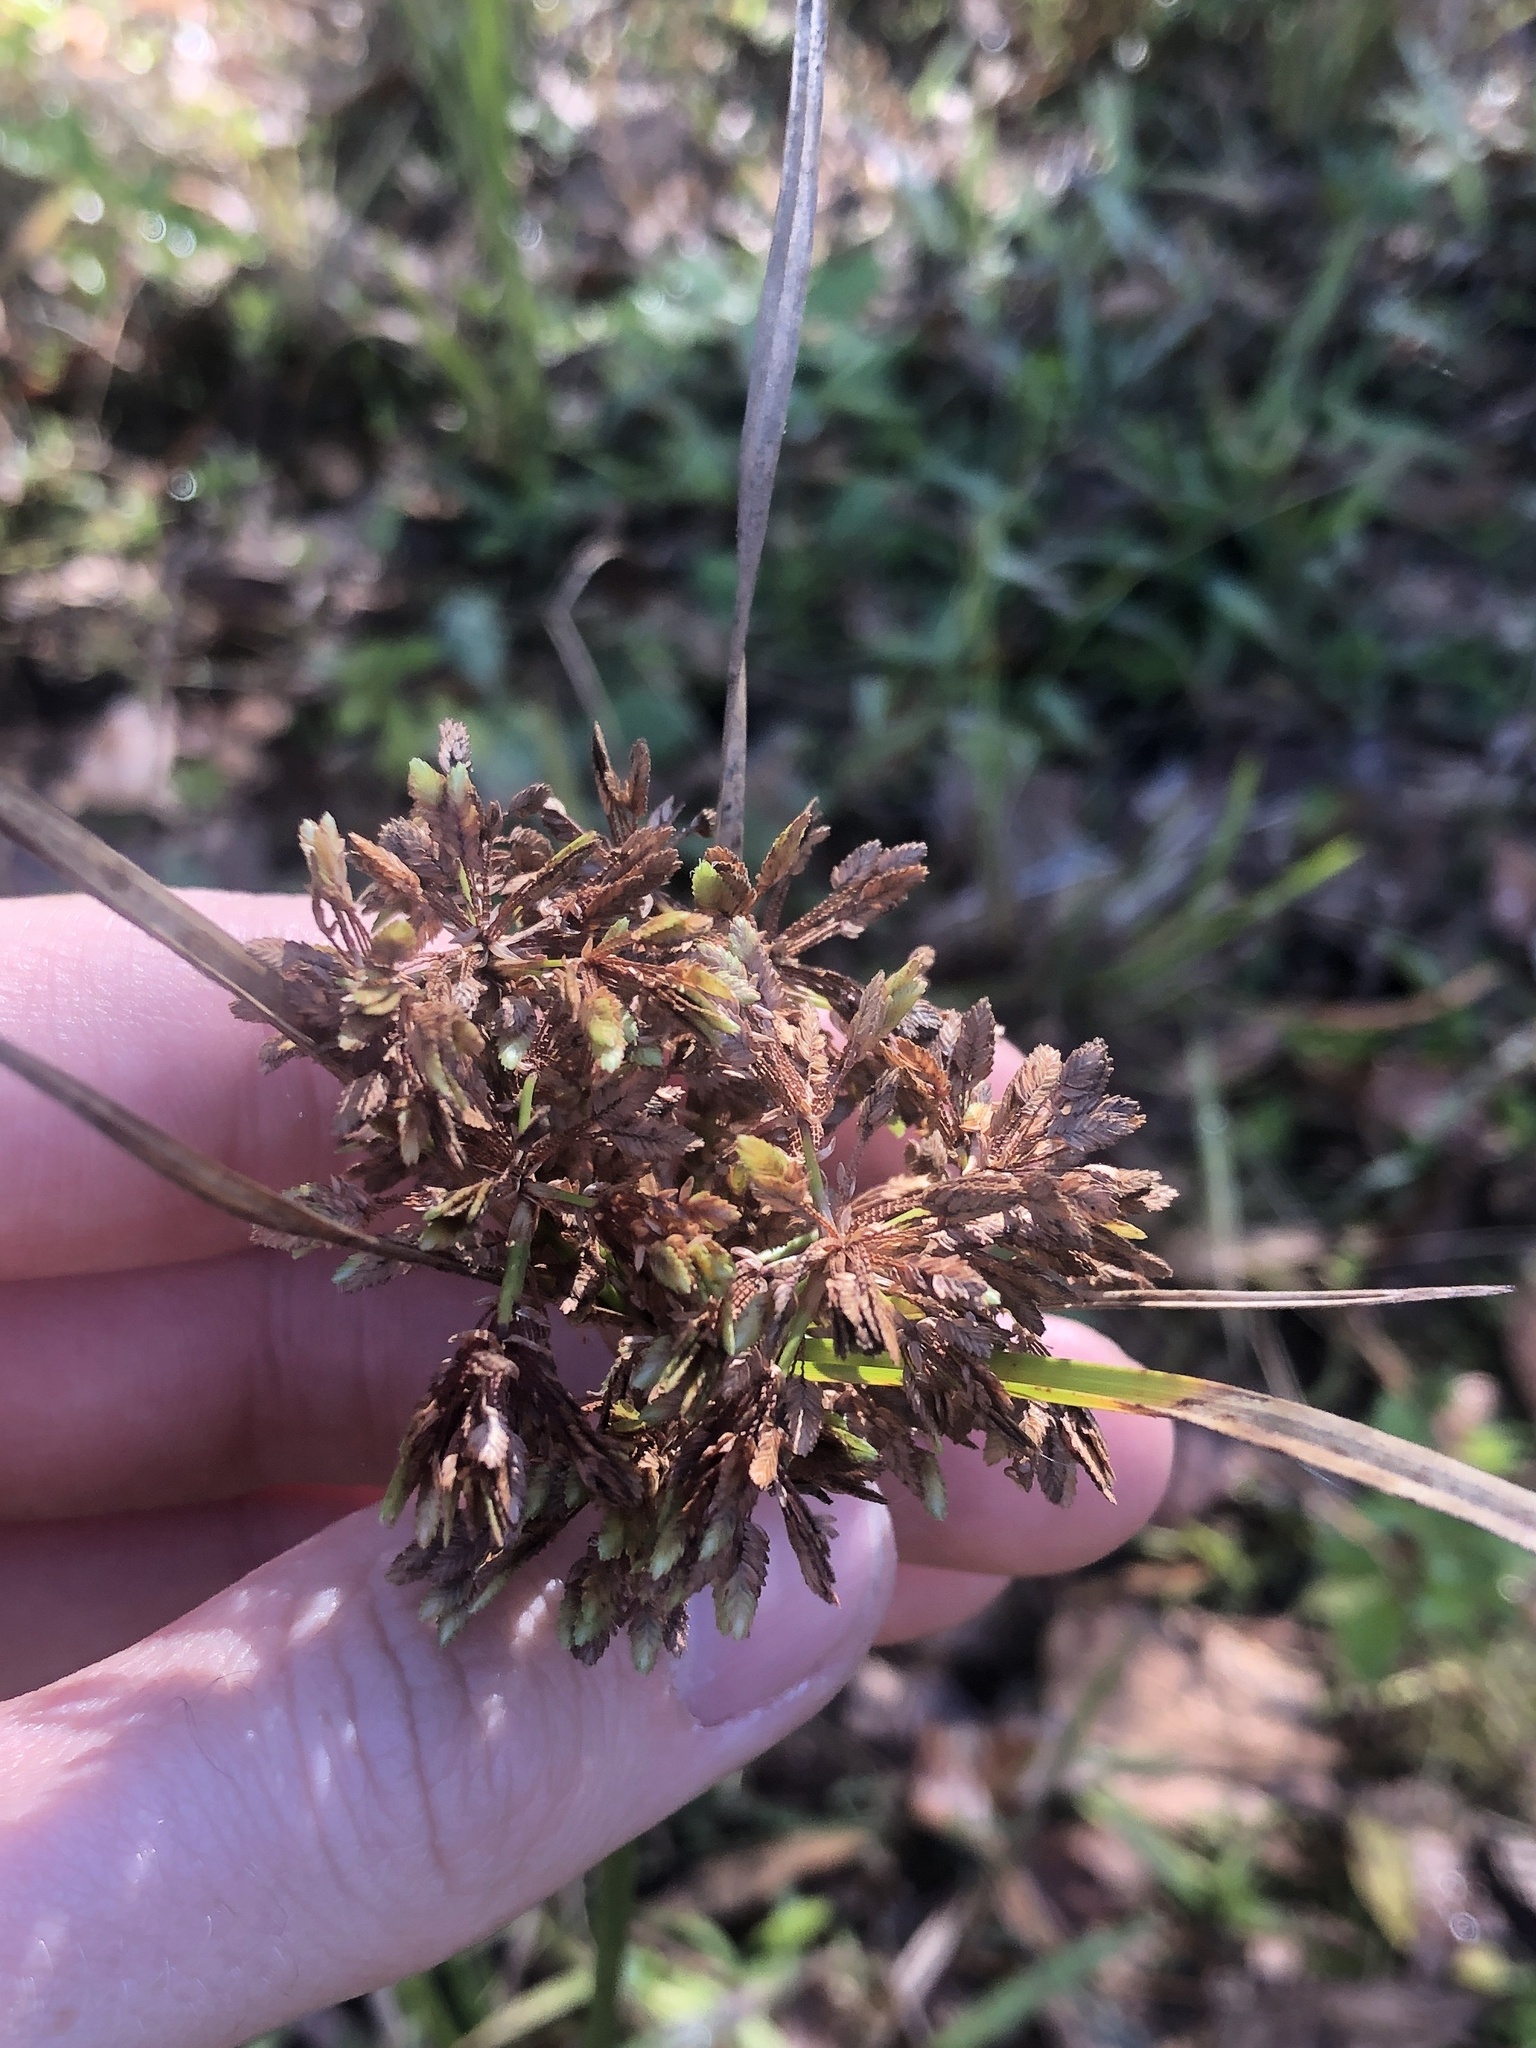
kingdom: Plantae
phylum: Tracheophyta
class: Liliopsida
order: Poales
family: Cyperaceae
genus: Cyperus
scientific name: Cyperus surinamensis
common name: Tropical flat sedge
